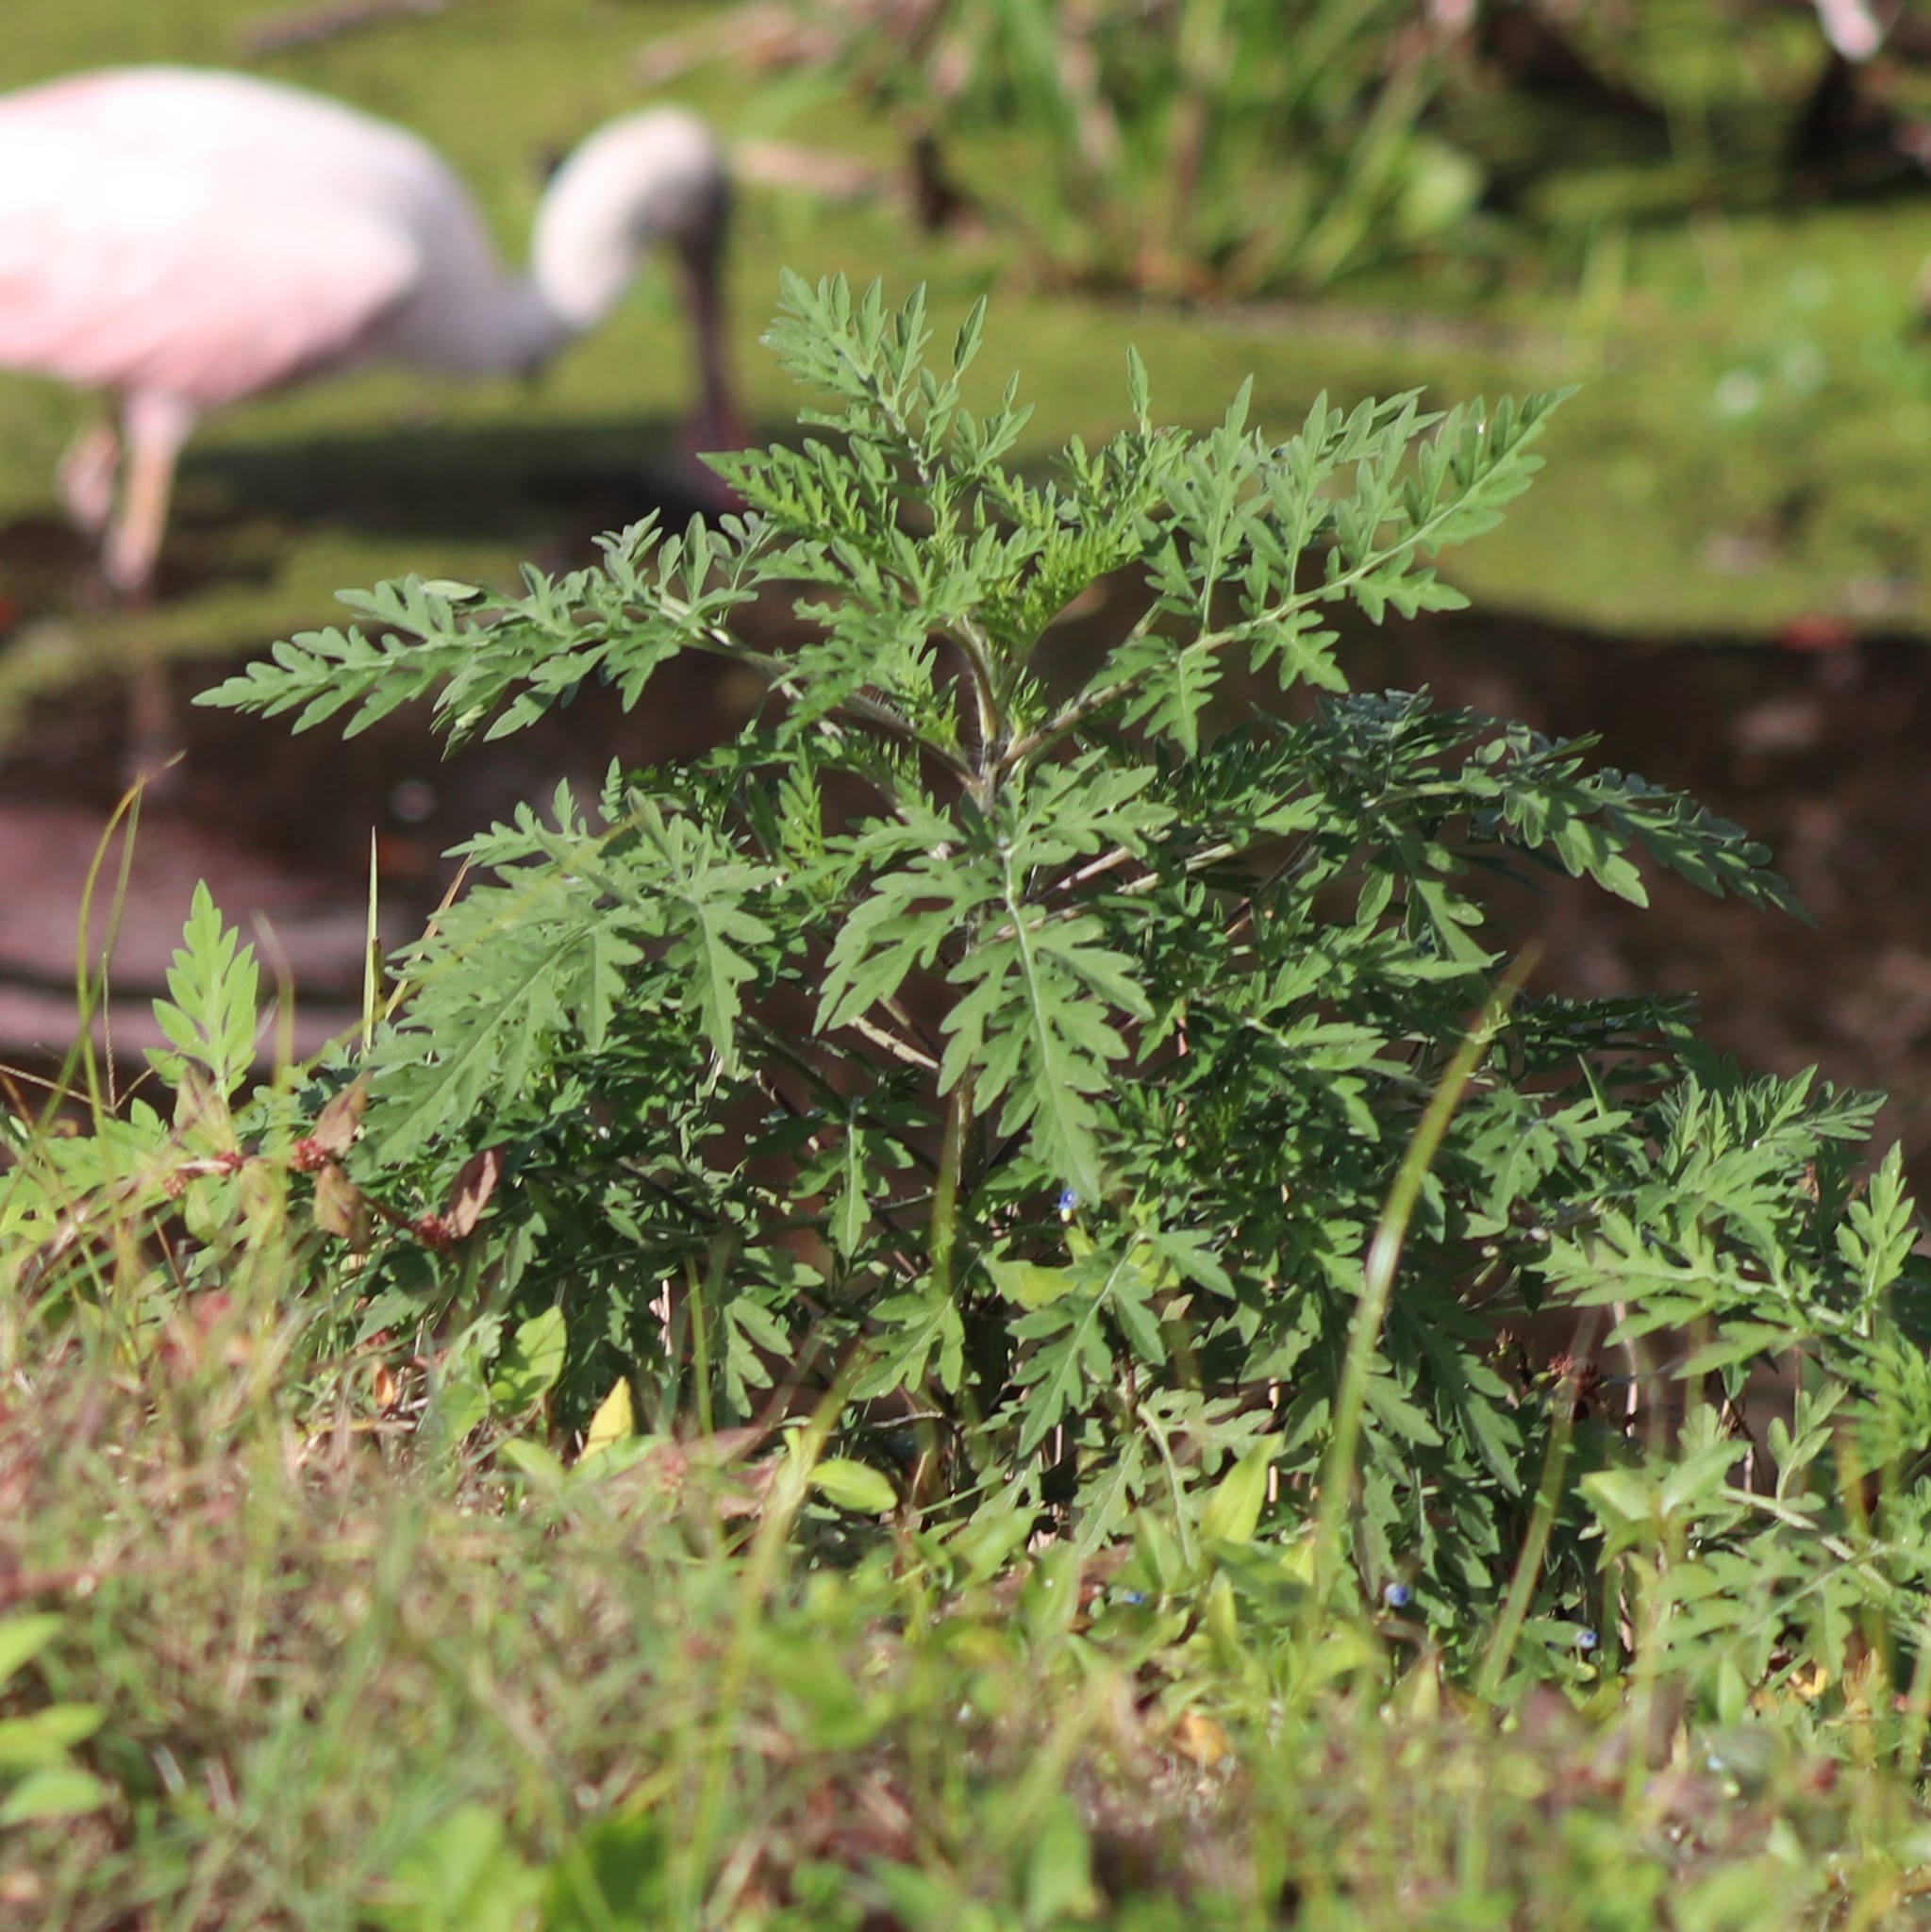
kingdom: Plantae
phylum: Tracheophyta
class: Magnoliopsida
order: Asterales
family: Asteraceae
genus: Ambrosia
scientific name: Ambrosia artemisiifolia
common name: Annual ragweed
